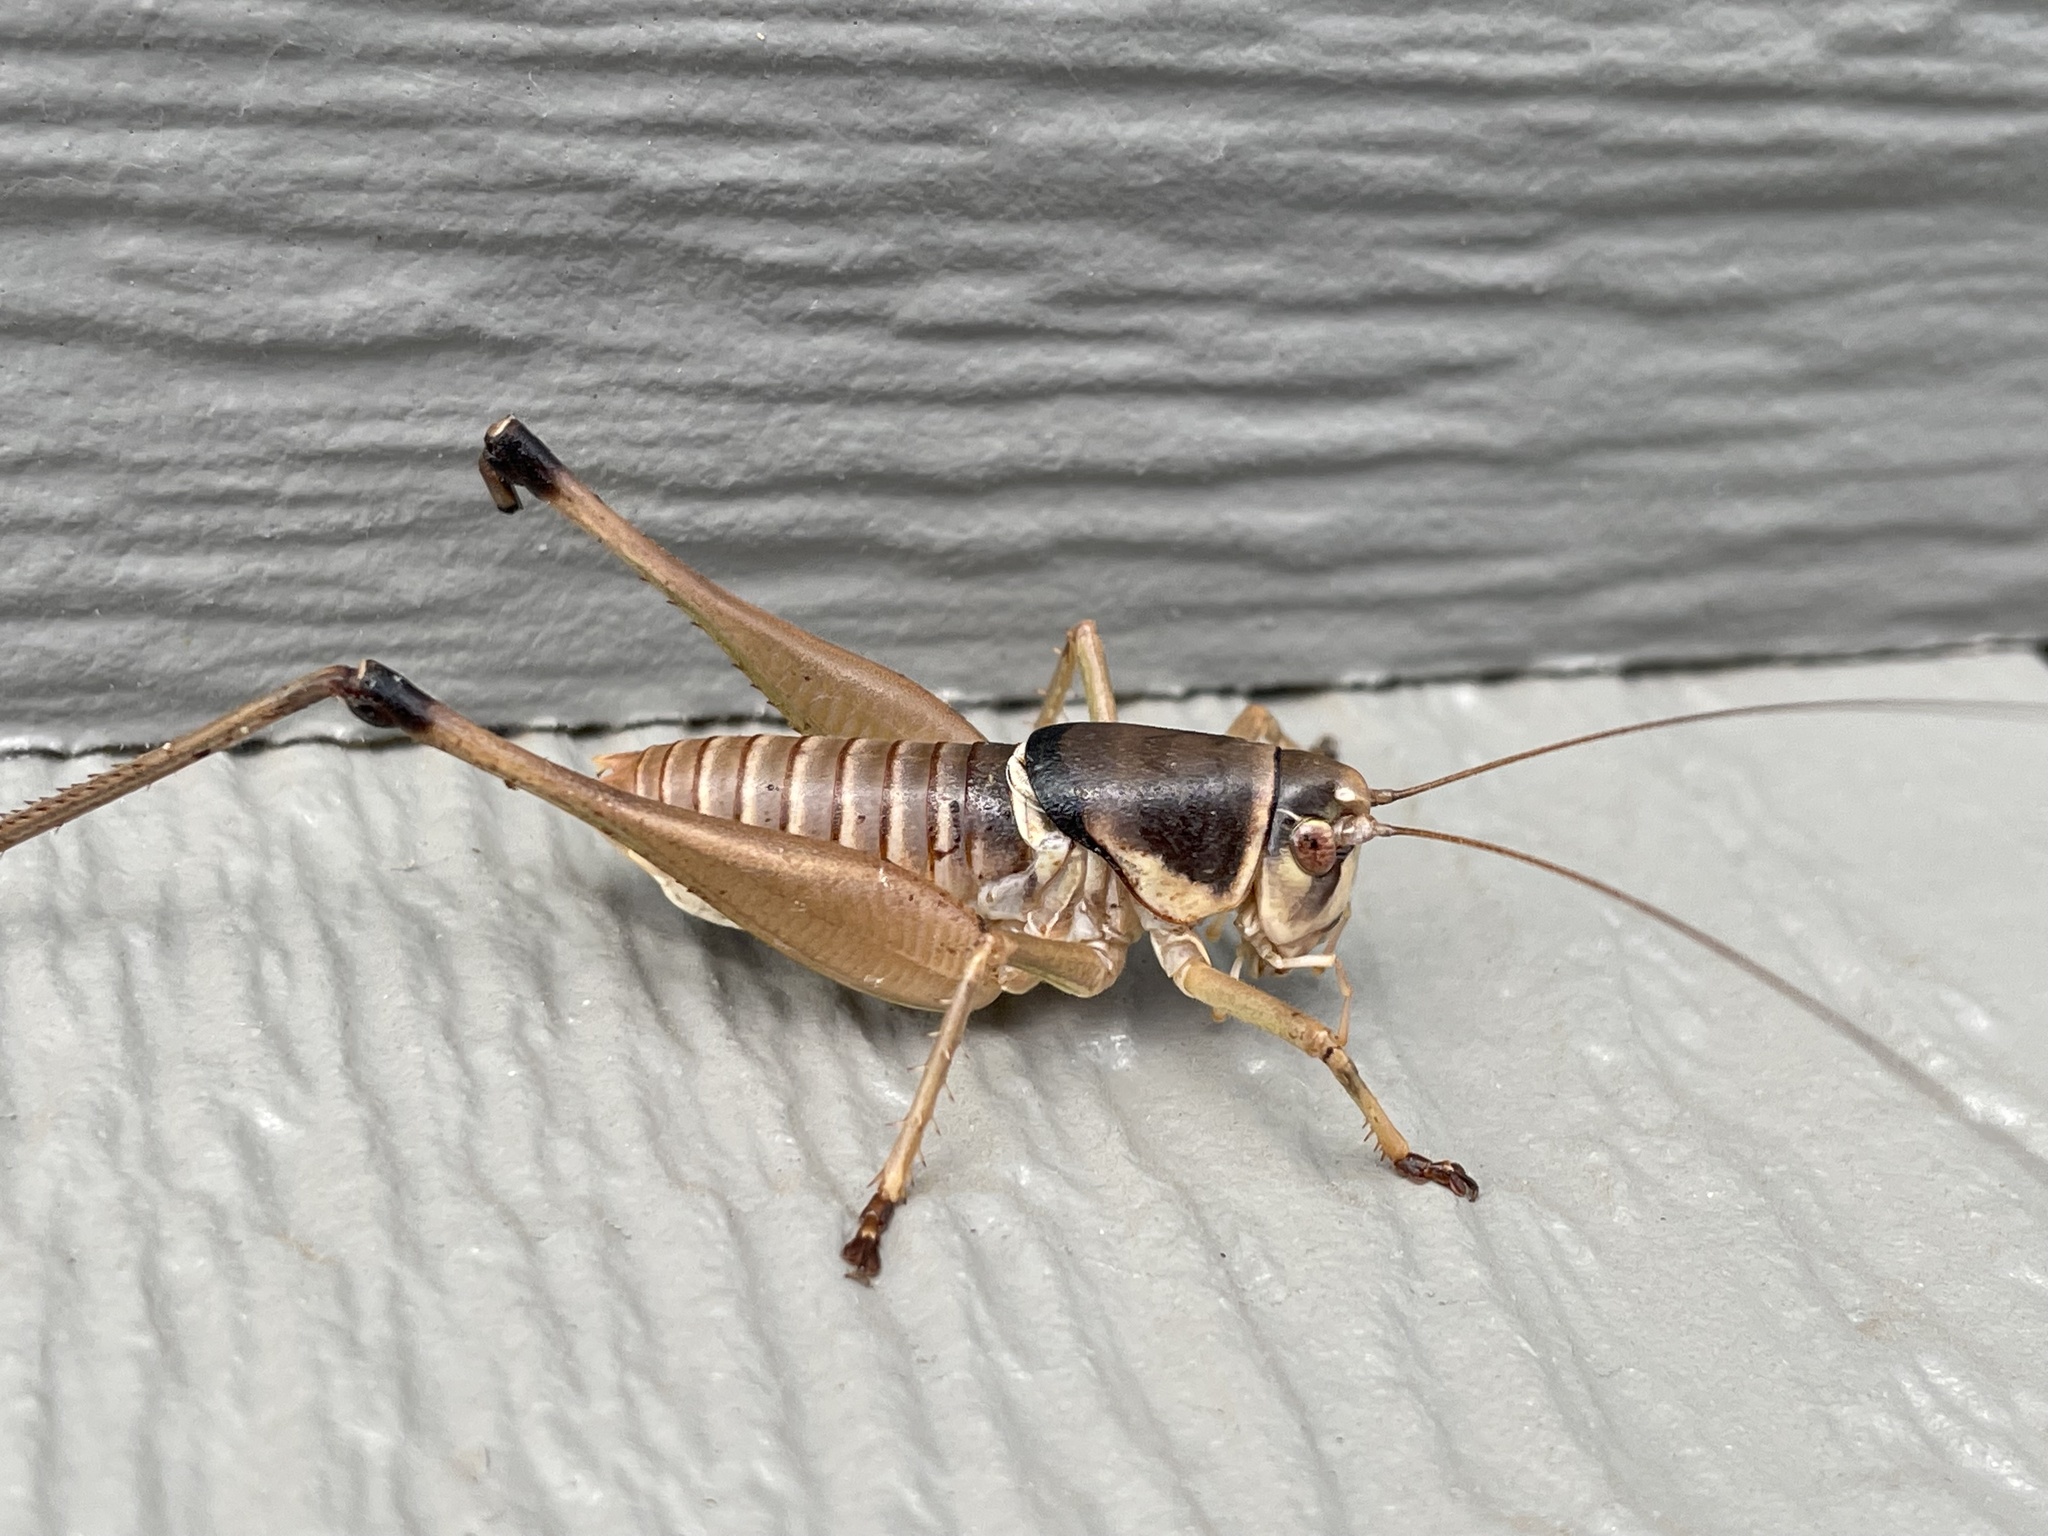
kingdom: Animalia
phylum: Arthropoda
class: Insecta
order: Orthoptera
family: Tettigoniidae
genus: Pediodectes
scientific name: Pediodectes bruneri
